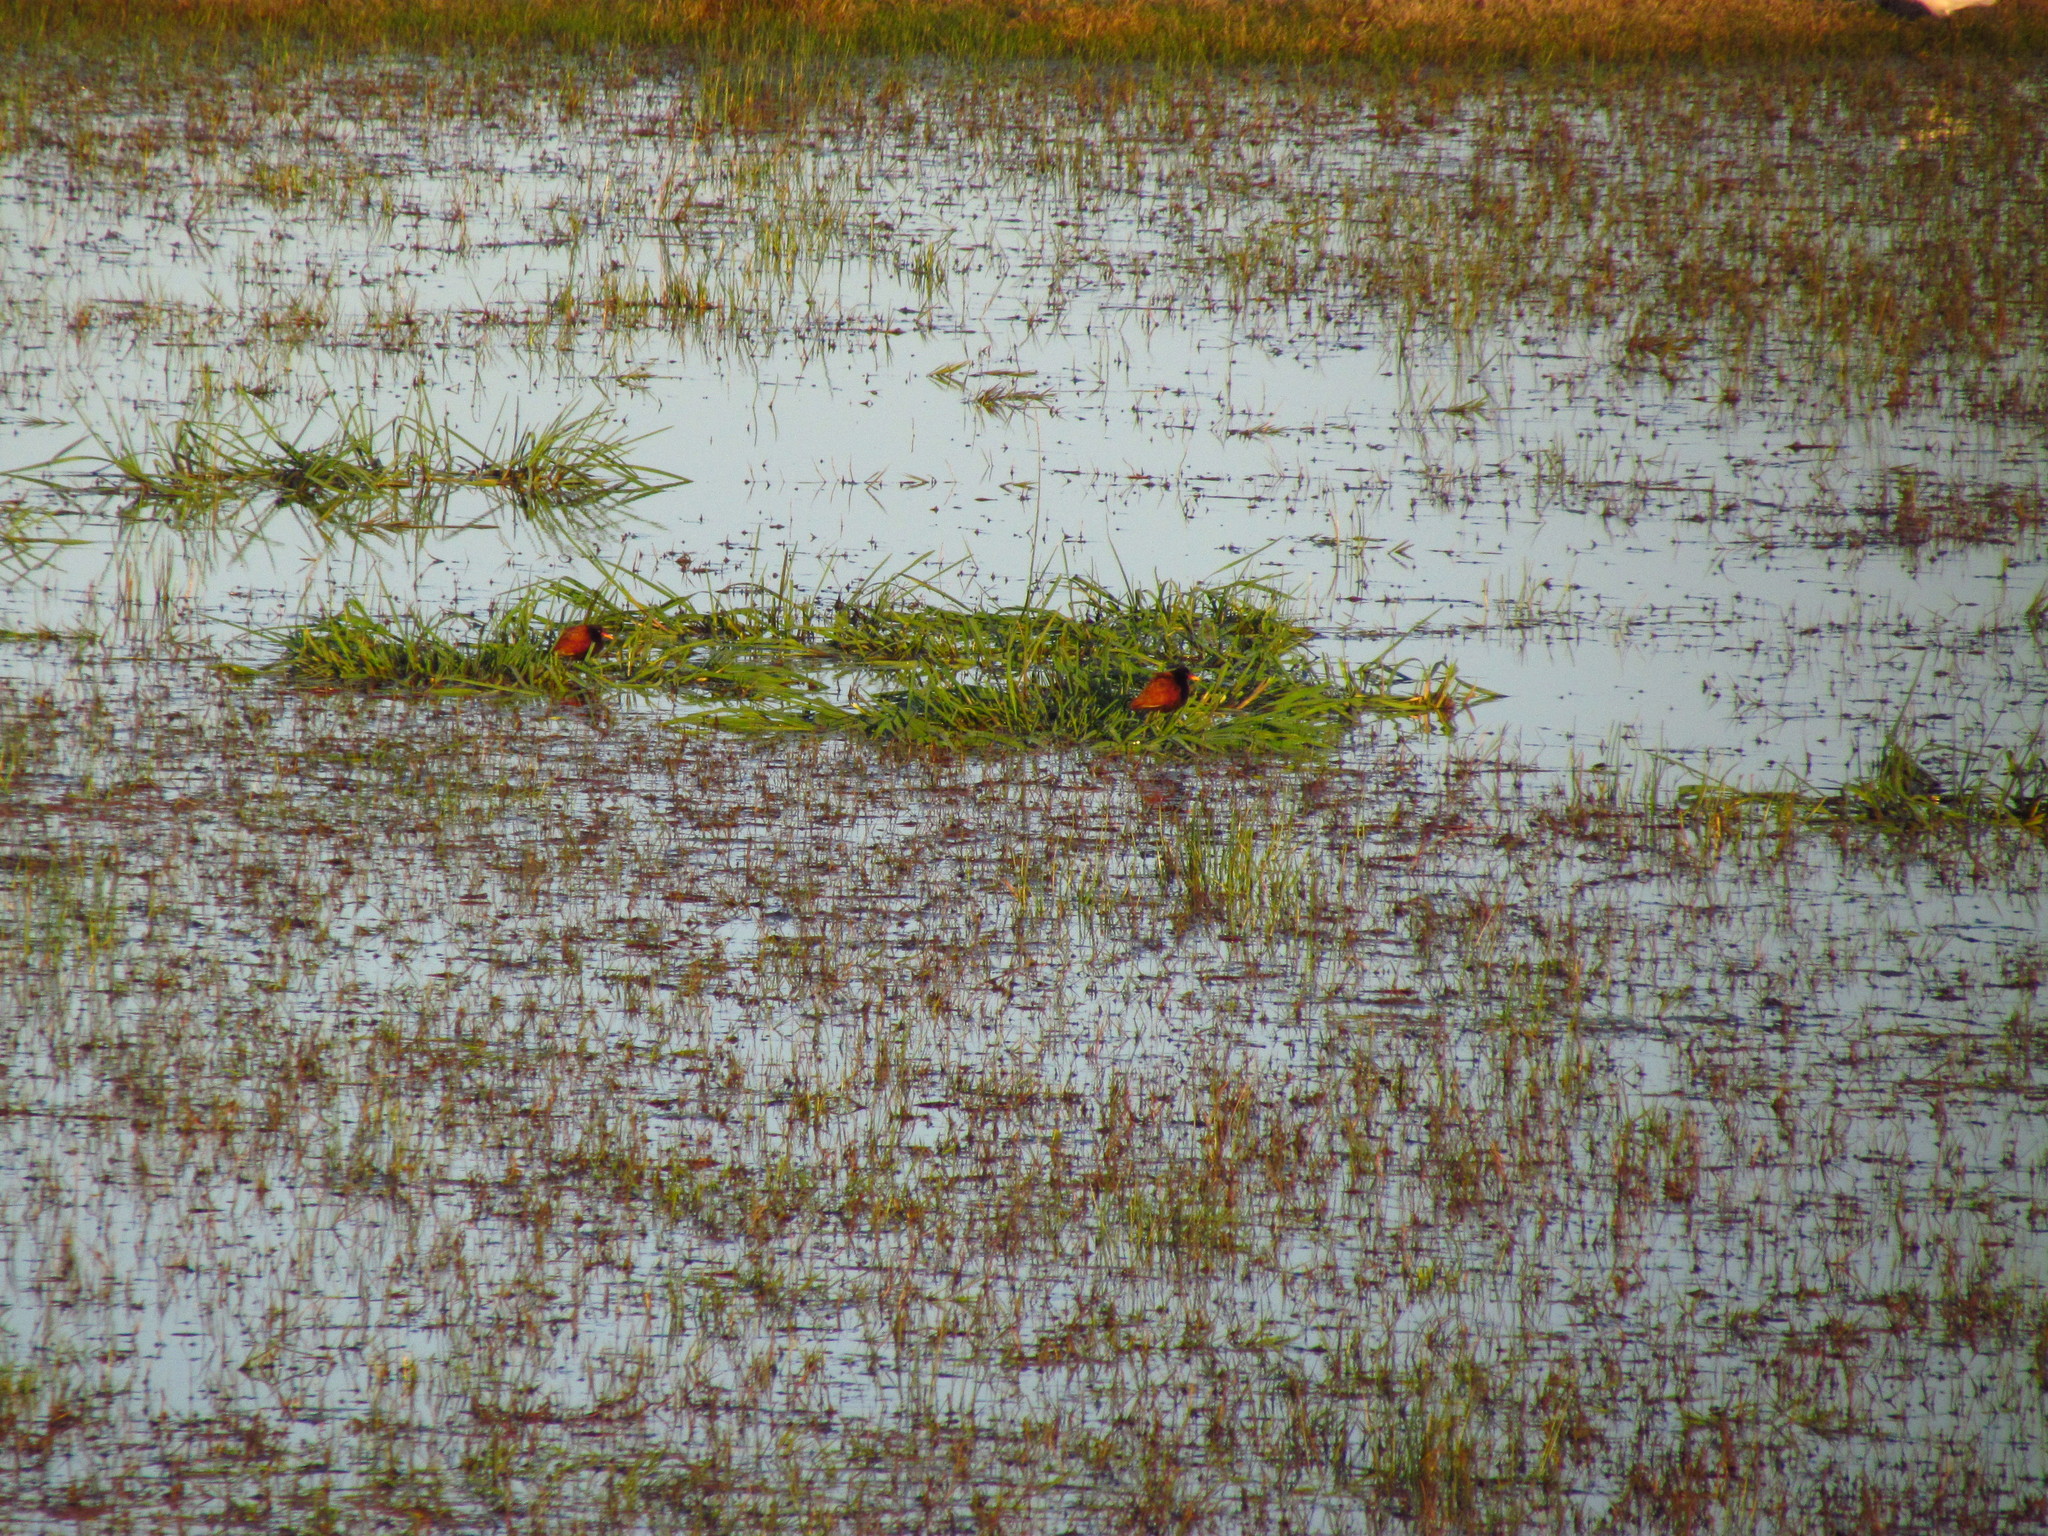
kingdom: Animalia
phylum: Chordata
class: Aves
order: Charadriiformes
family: Jacanidae
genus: Jacana
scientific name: Jacana jacana
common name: Wattled jacana
